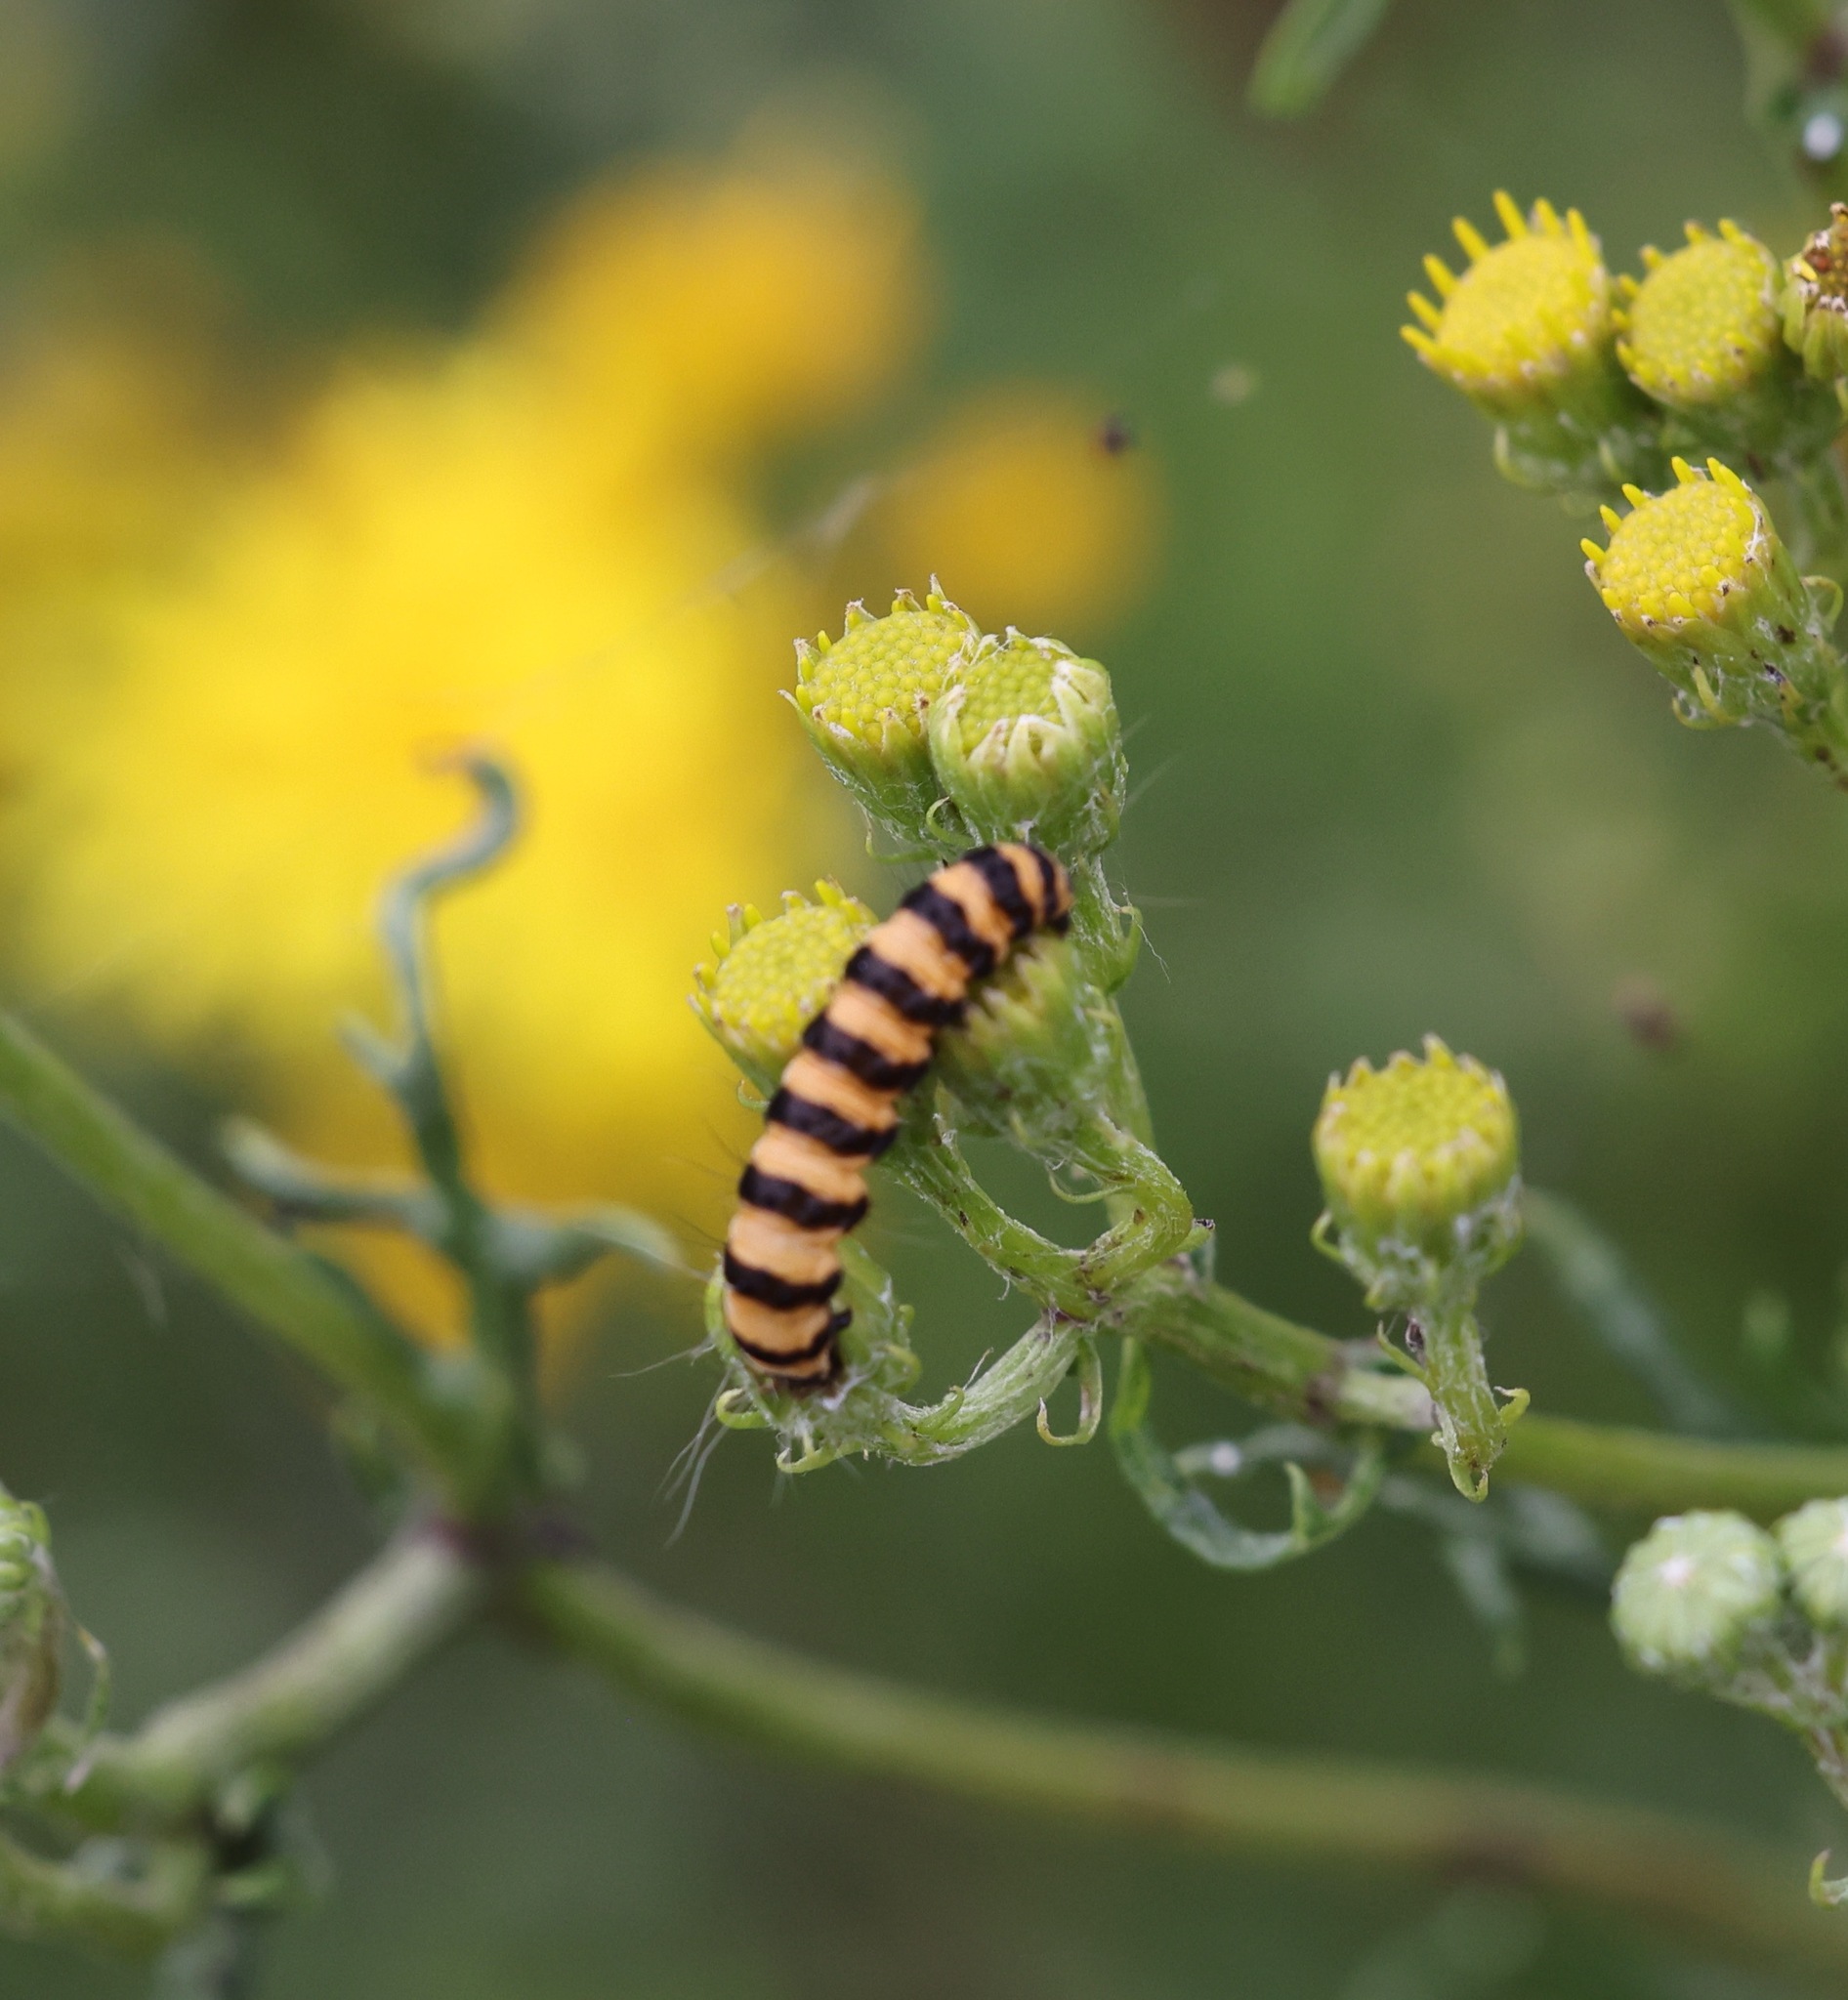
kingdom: Animalia
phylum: Arthropoda
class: Insecta
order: Lepidoptera
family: Erebidae
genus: Tyria
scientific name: Tyria jacobaeae
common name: Cinnabar
